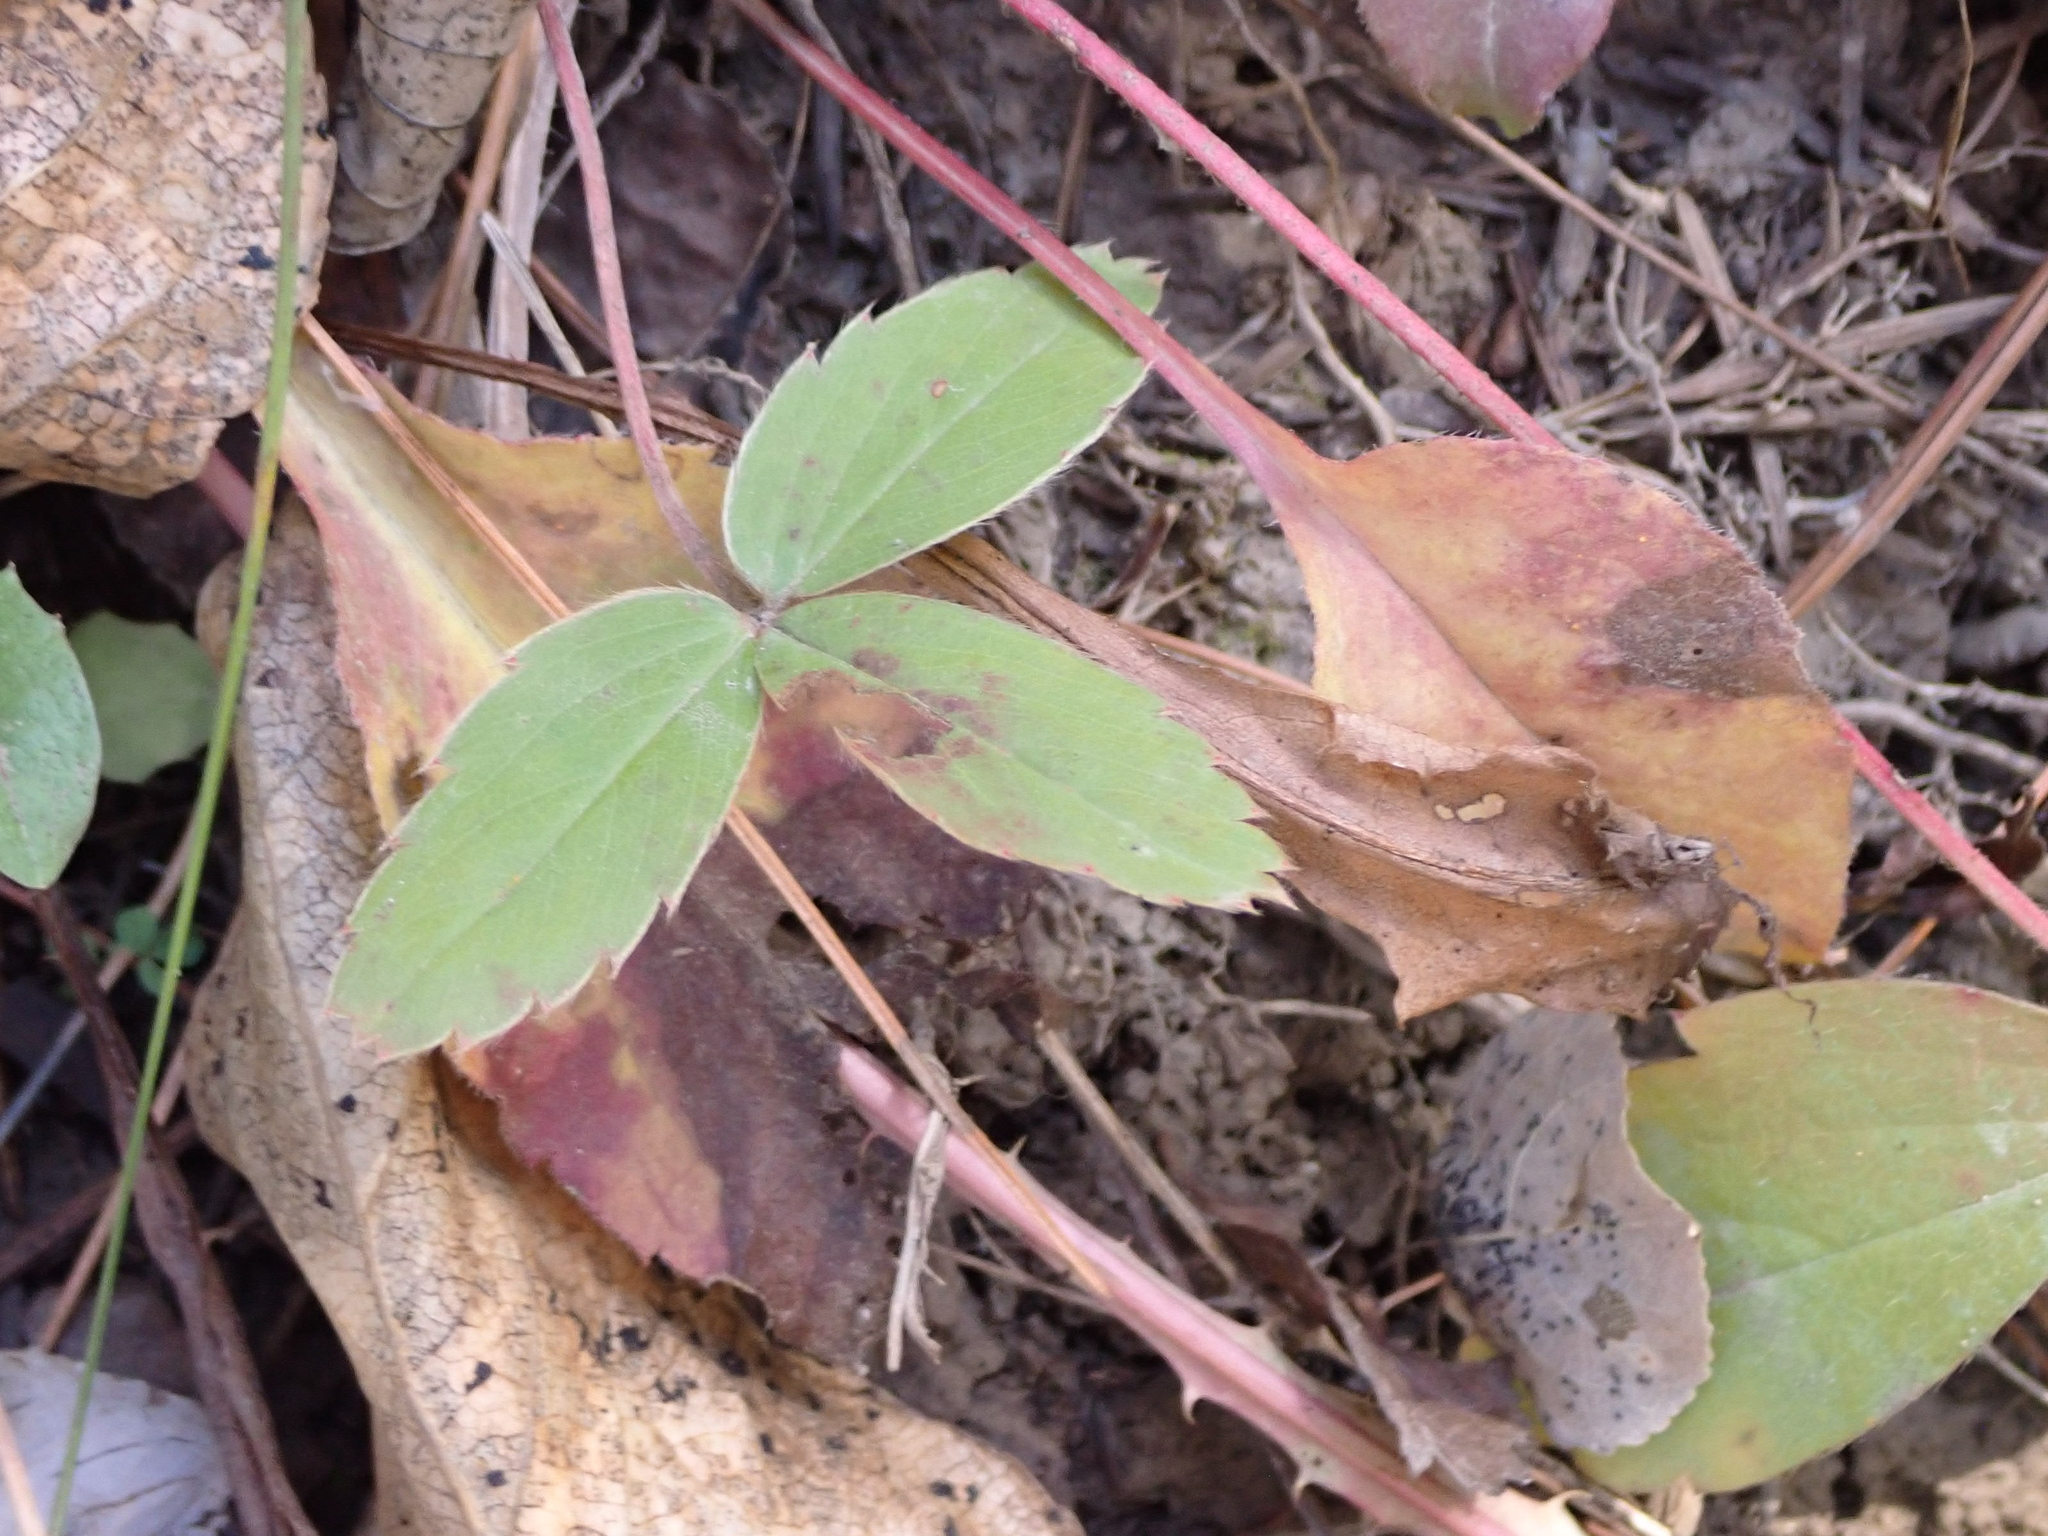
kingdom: Plantae
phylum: Tracheophyta
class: Magnoliopsida
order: Rosales
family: Rosaceae
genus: Fragaria
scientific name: Fragaria vesca
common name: Wild strawberry
